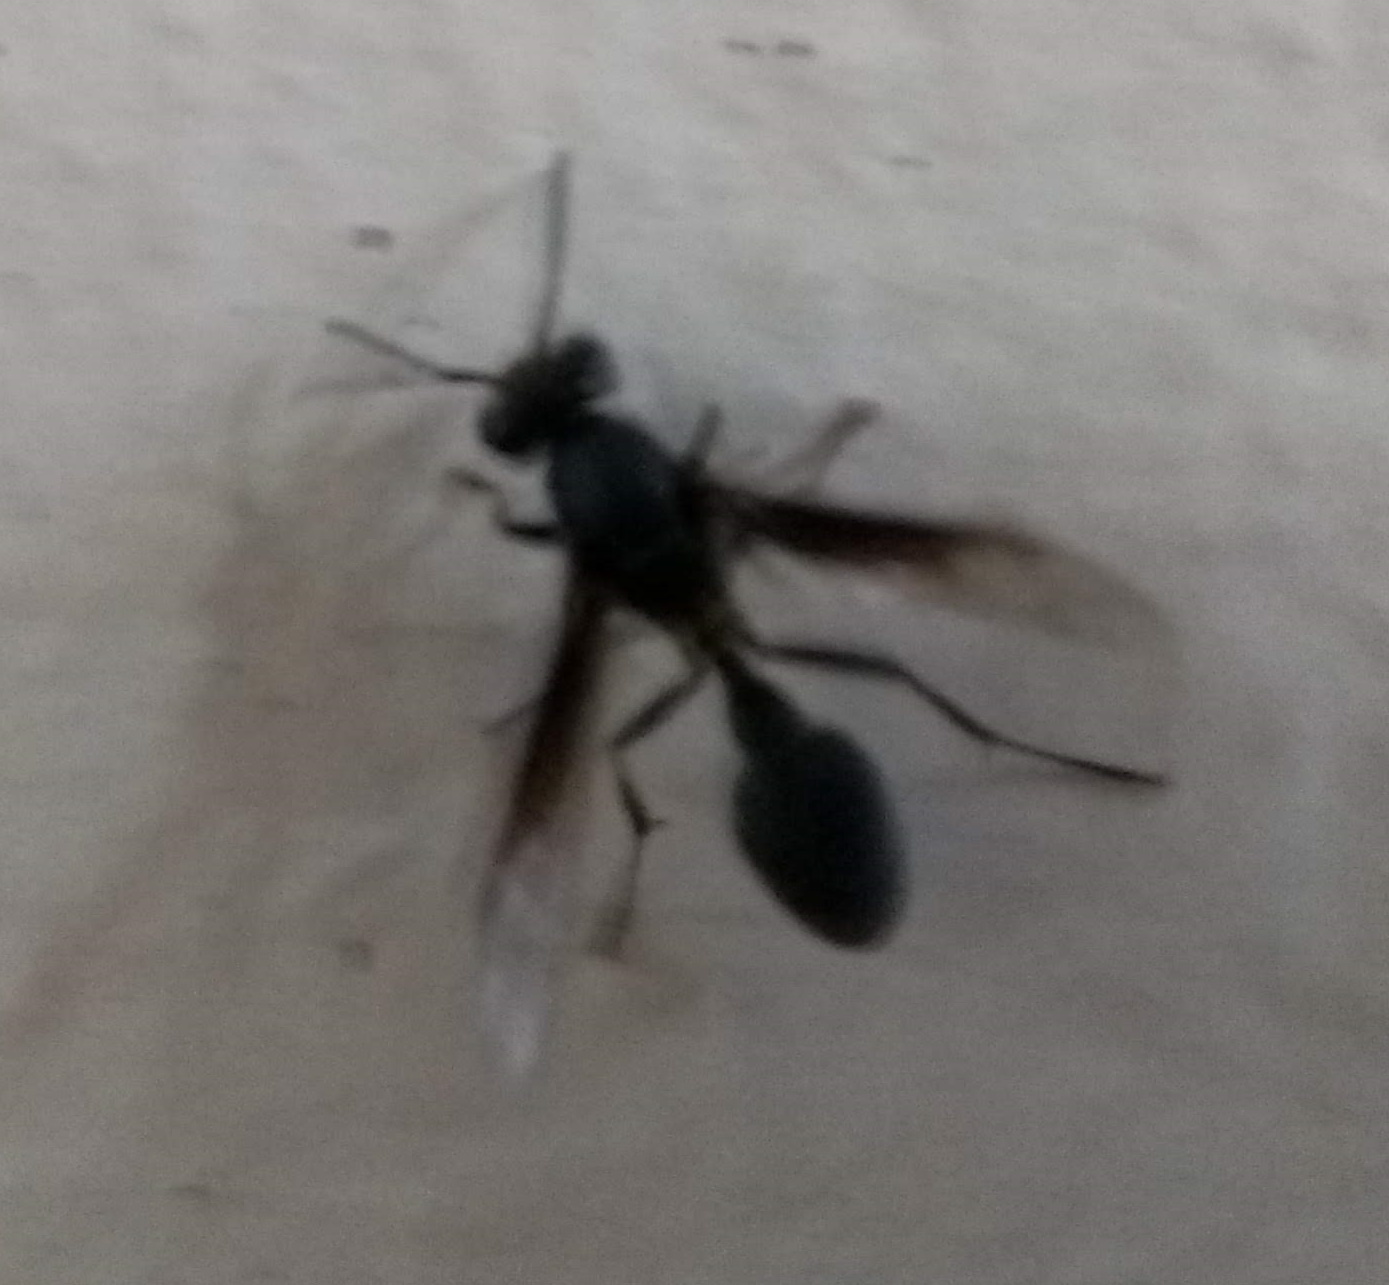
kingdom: Animalia
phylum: Arthropoda
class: Insecta
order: Hymenoptera
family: Eumenidae
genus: Polybia
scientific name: Polybia ignobilis
